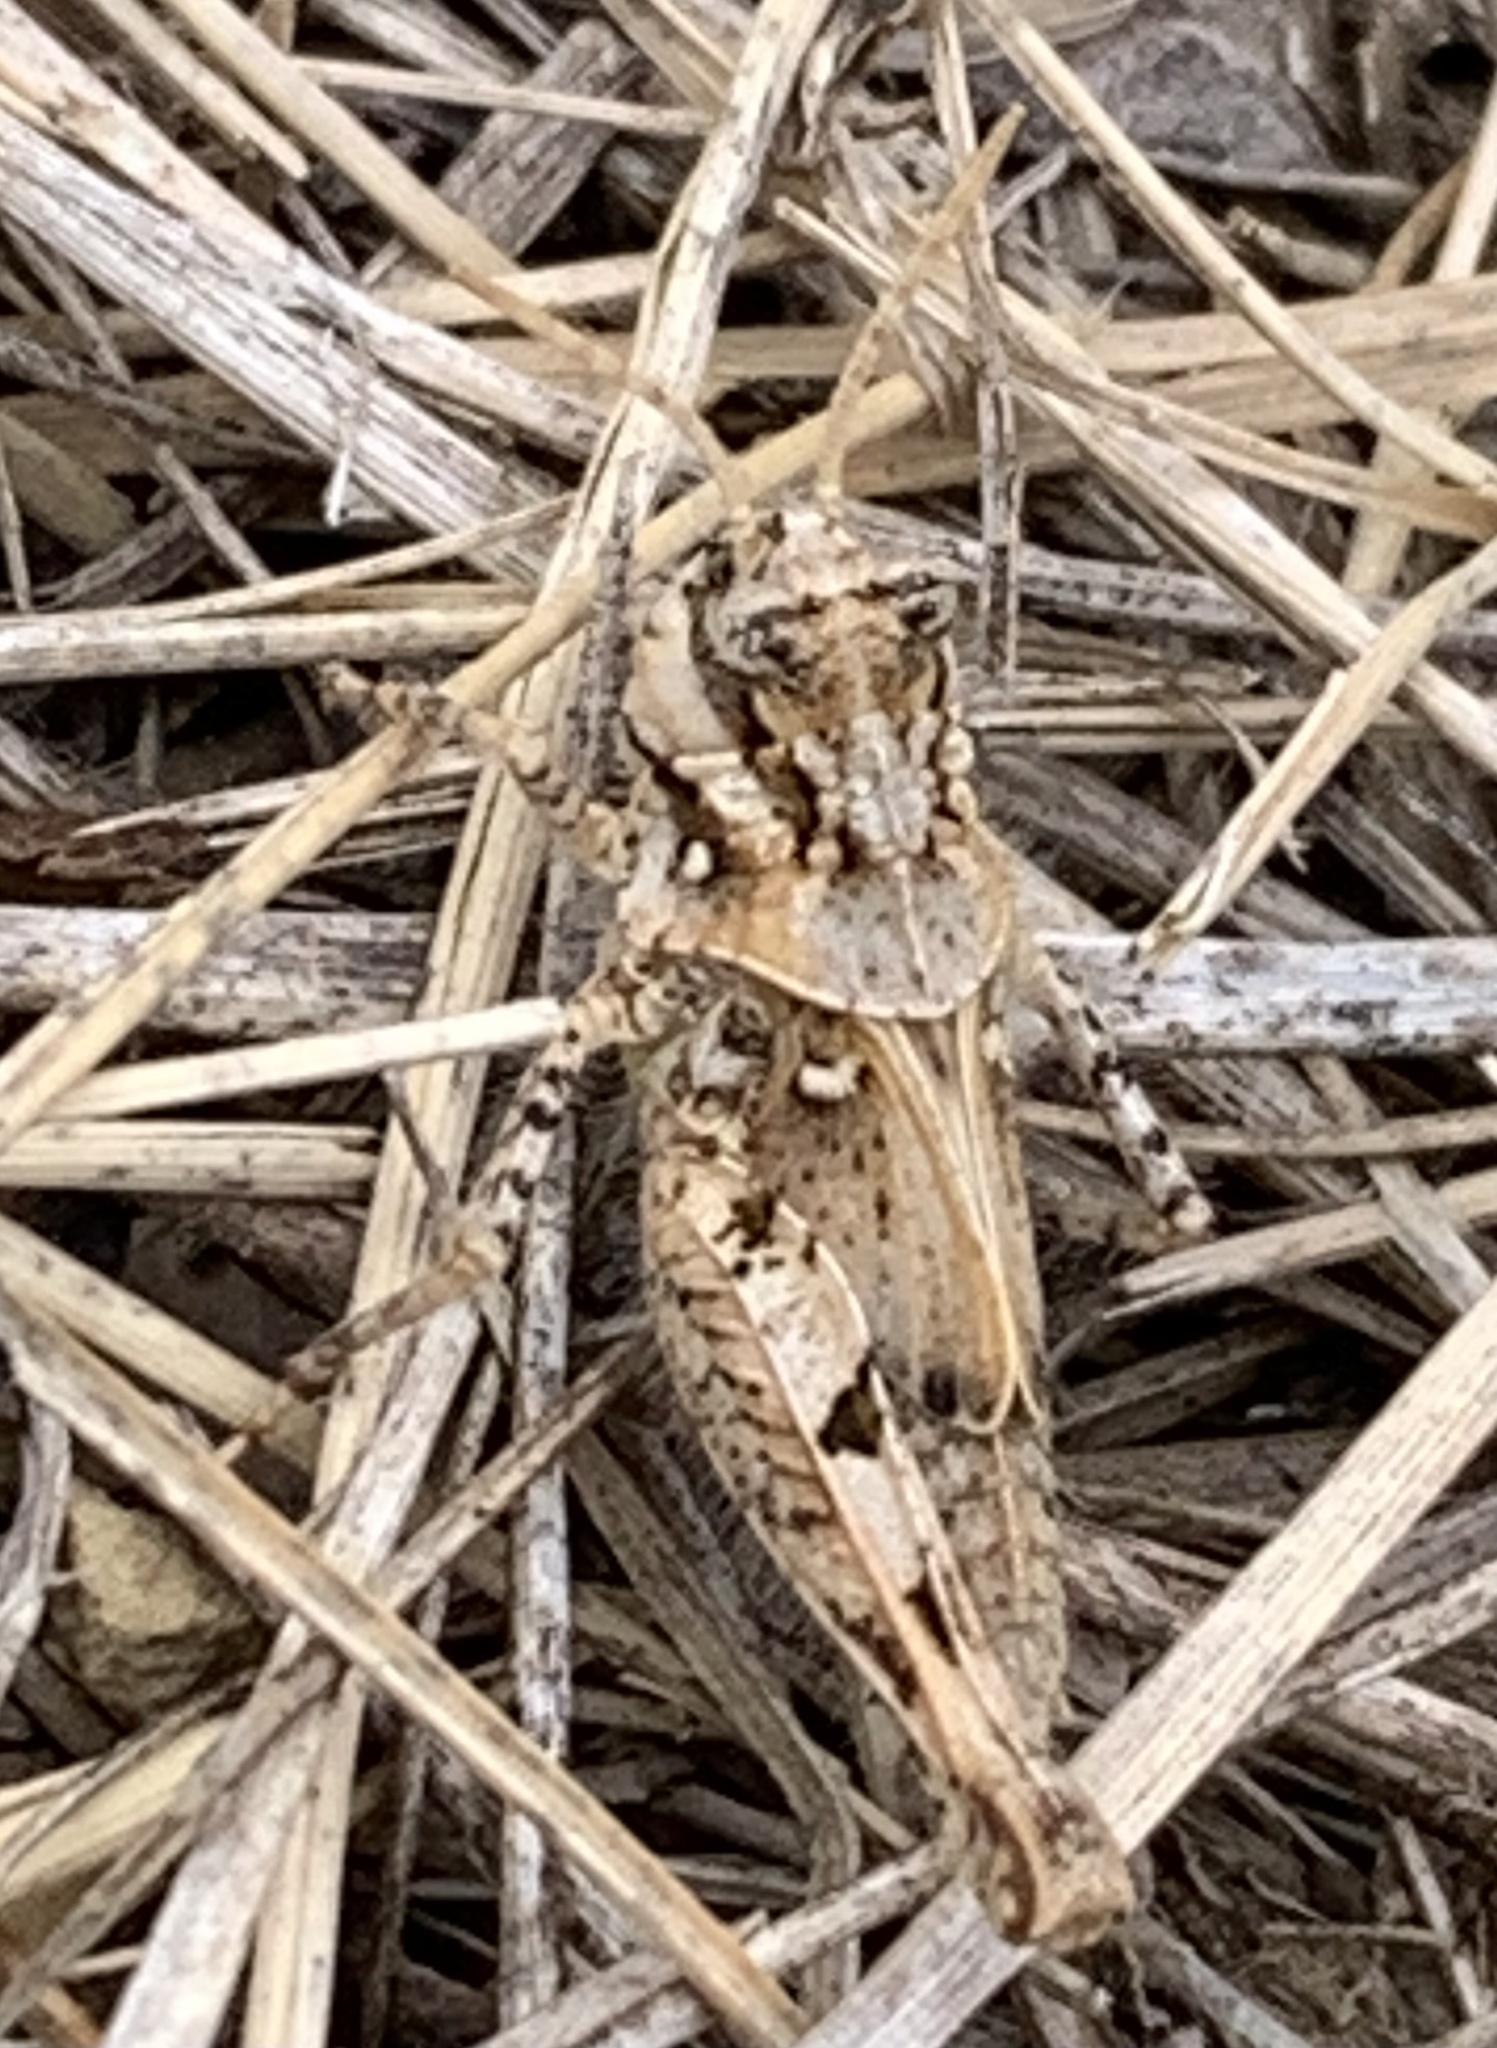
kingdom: Animalia
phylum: Arthropoda
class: Insecta
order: Orthoptera
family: Acrididae
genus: Acrotylus
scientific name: Acrotylus insubricus
